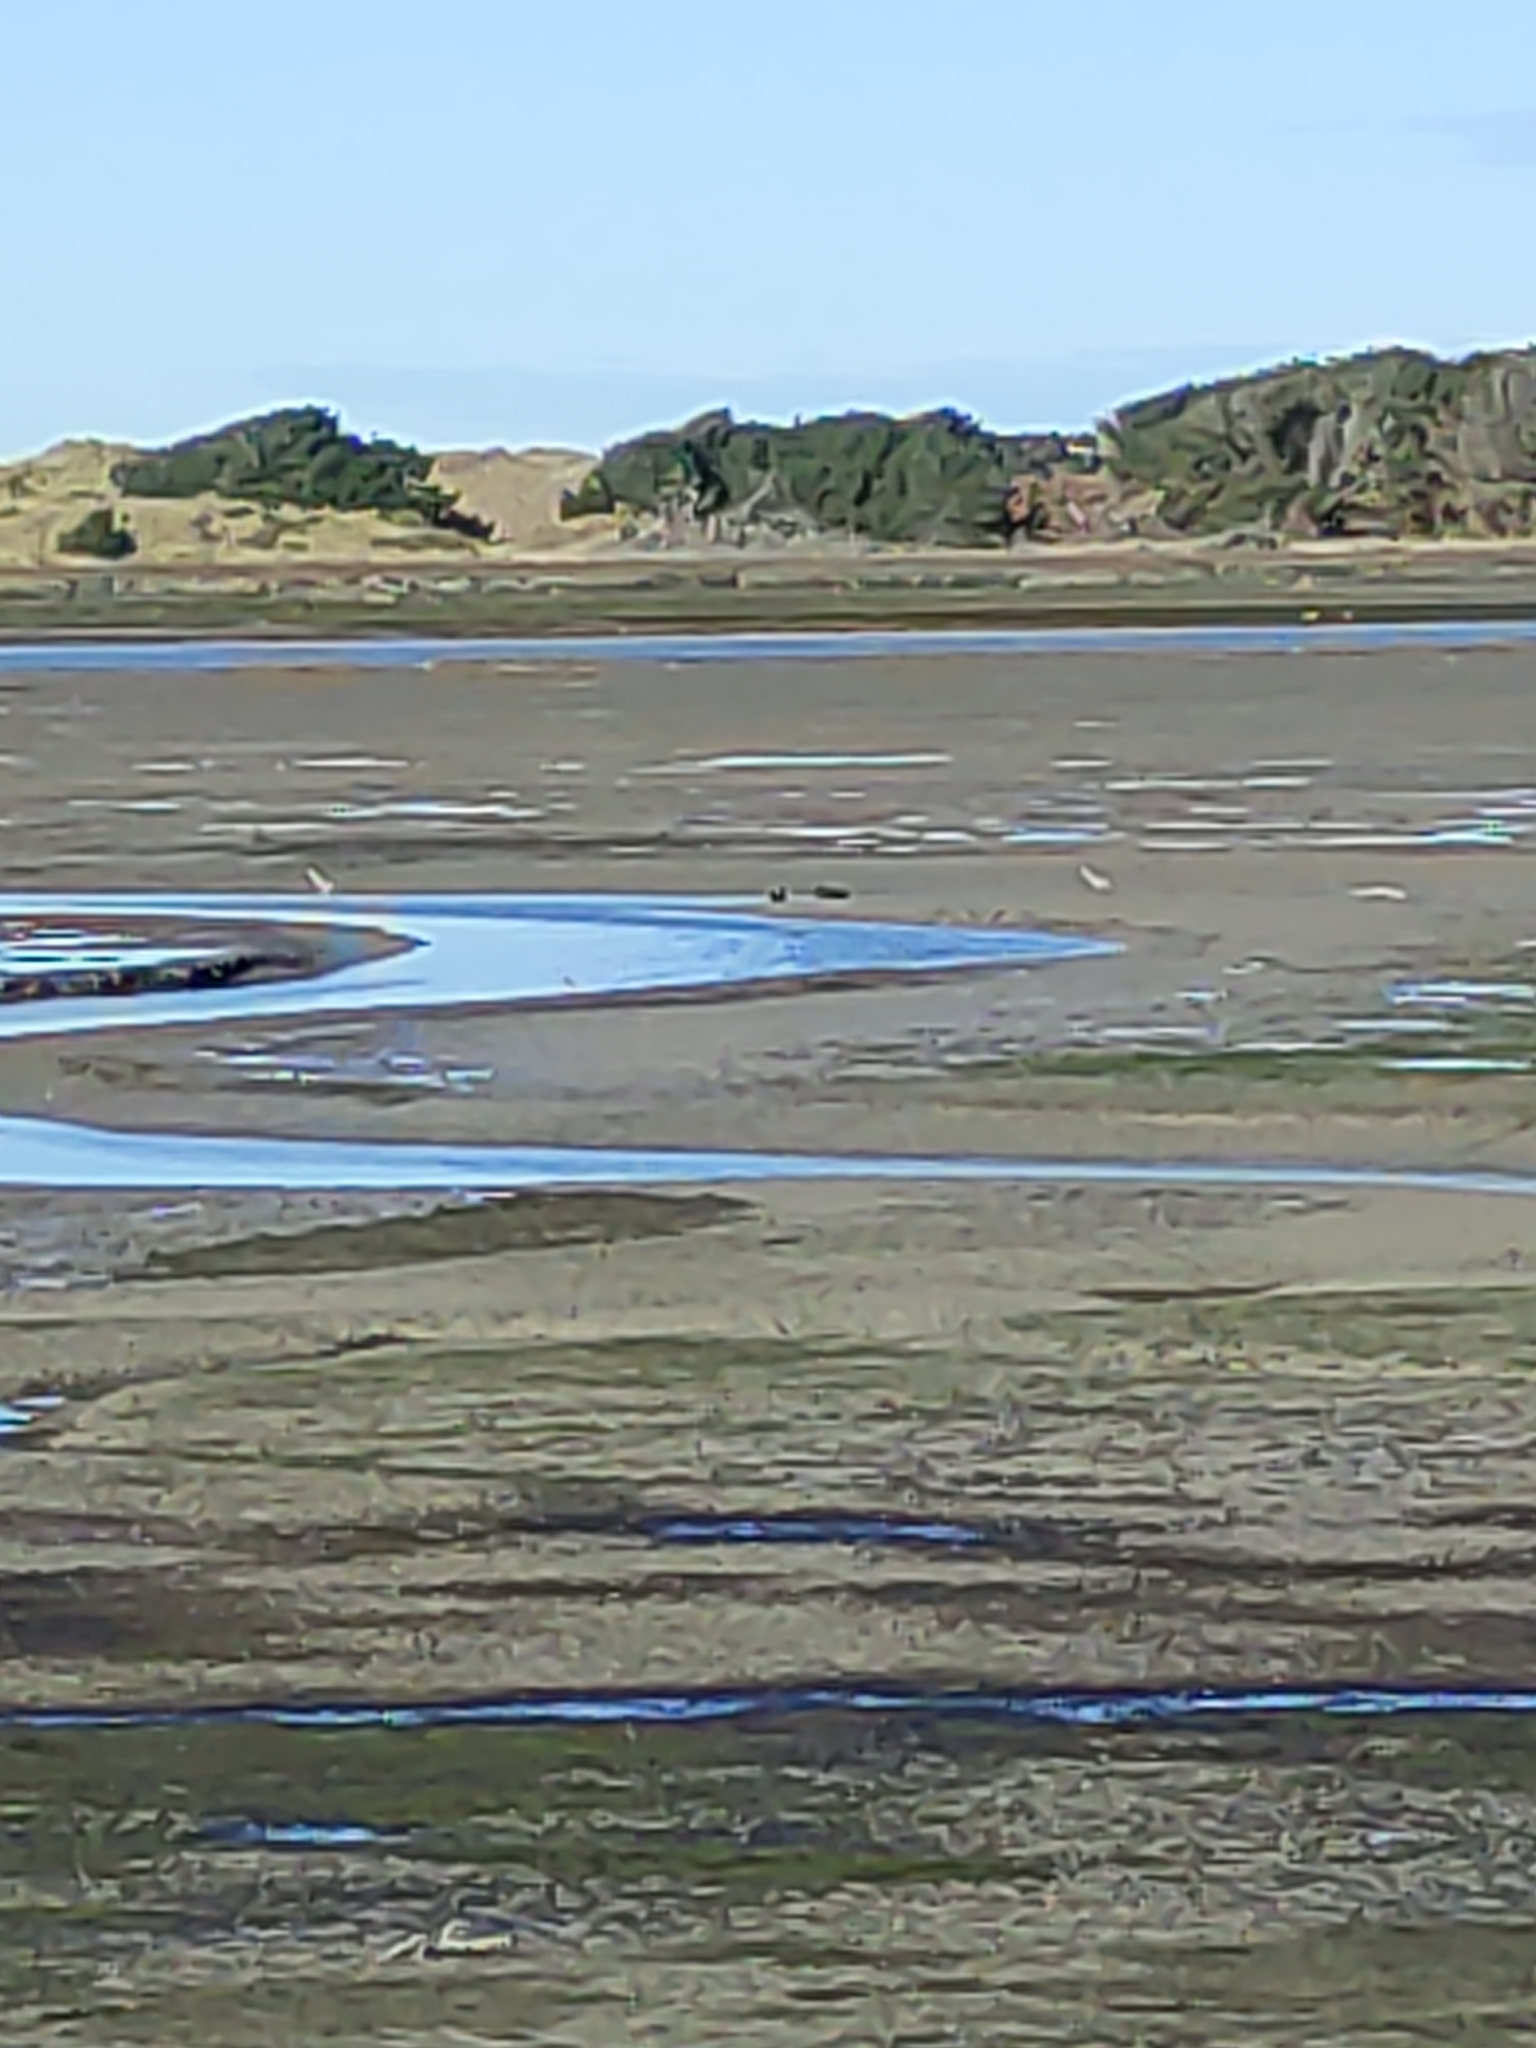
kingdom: Animalia
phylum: Chordata
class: Aves
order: Anseriformes
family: Anatidae
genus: Cygnus
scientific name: Cygnus atratus
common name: Black swan
